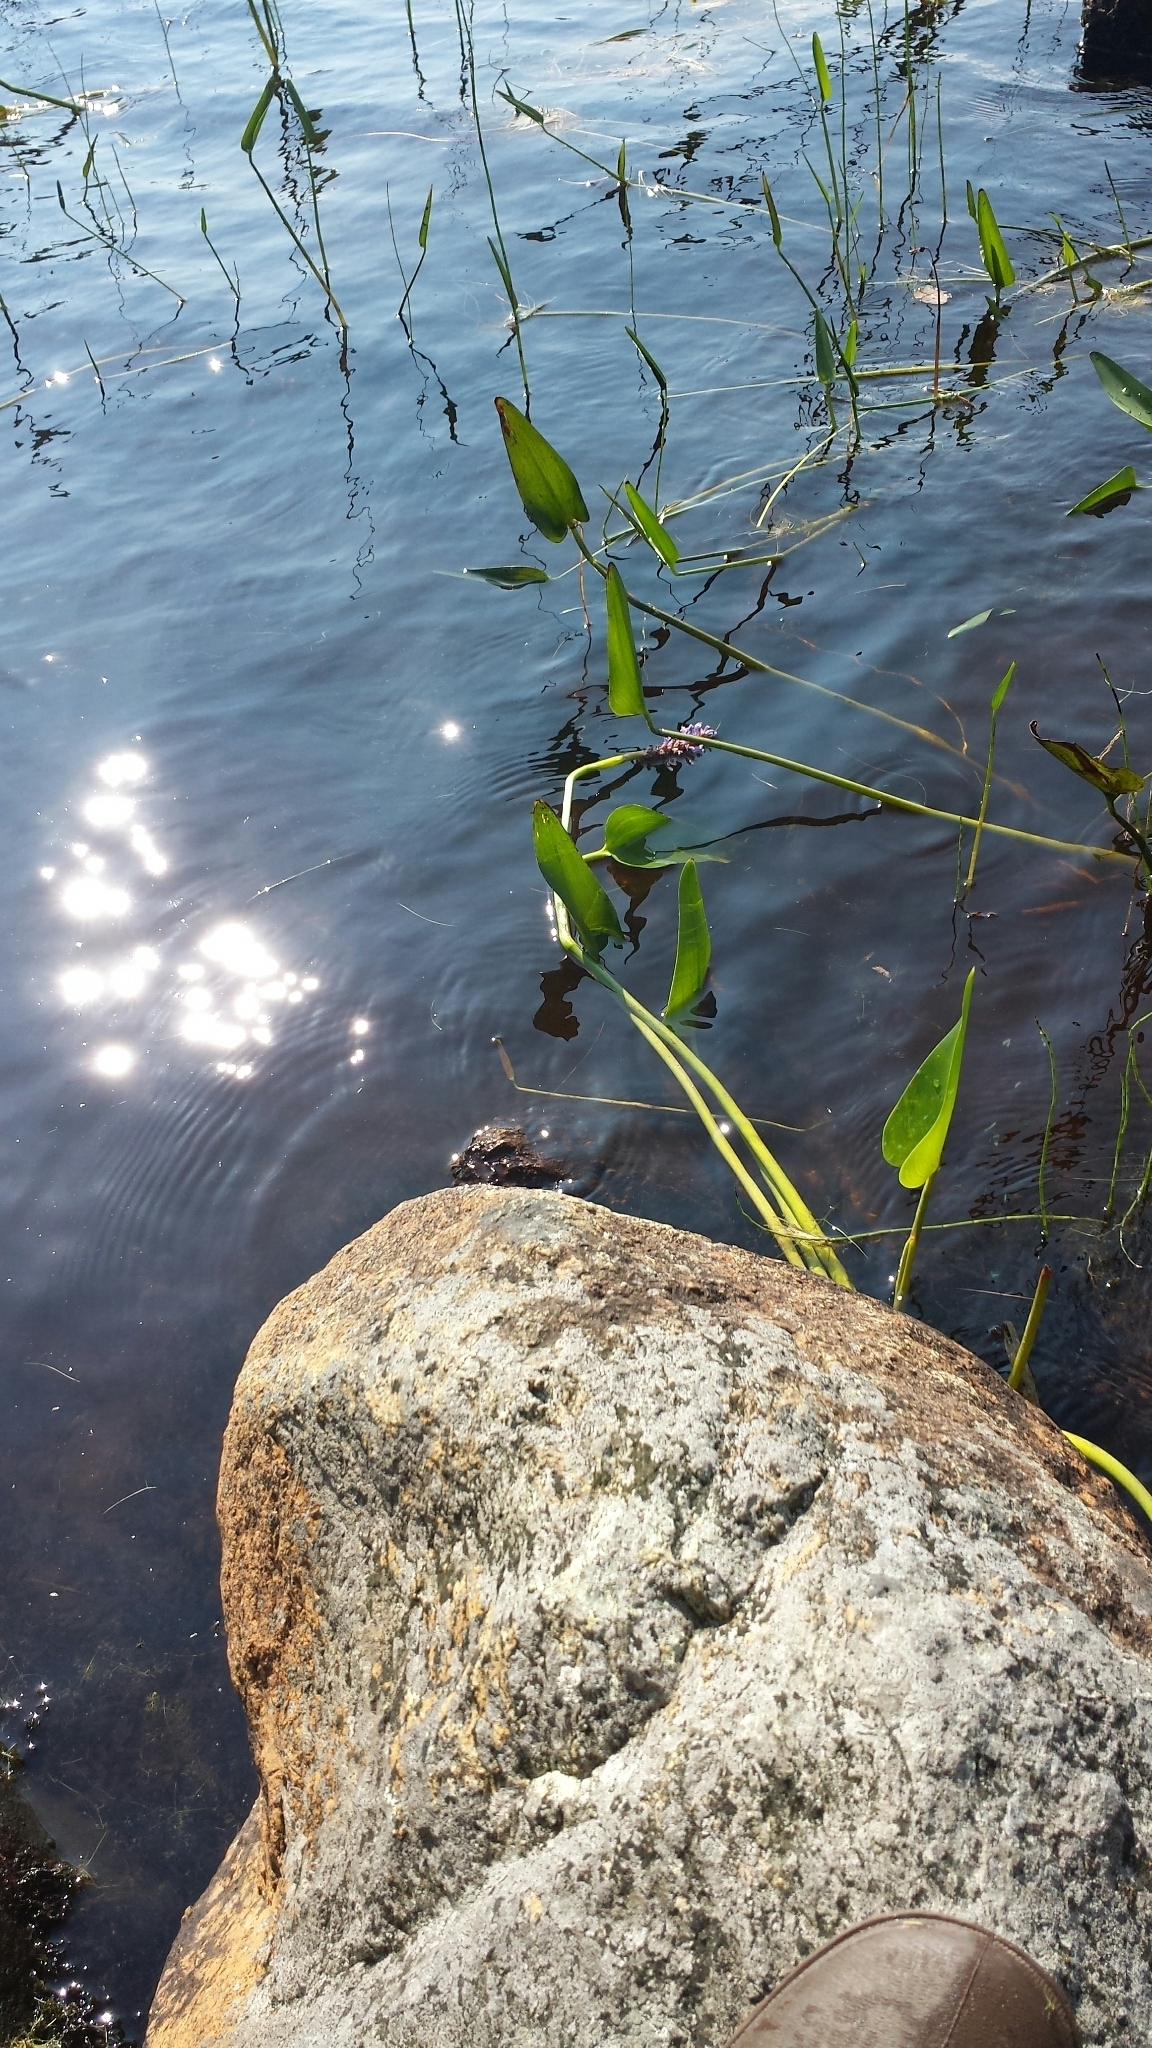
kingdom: Plantae
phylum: Tracheophyta
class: Liliopsida
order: Commelinales
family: Pontederiaceae
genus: Pontederia
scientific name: Pontederia cordata
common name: Pickerelweed
